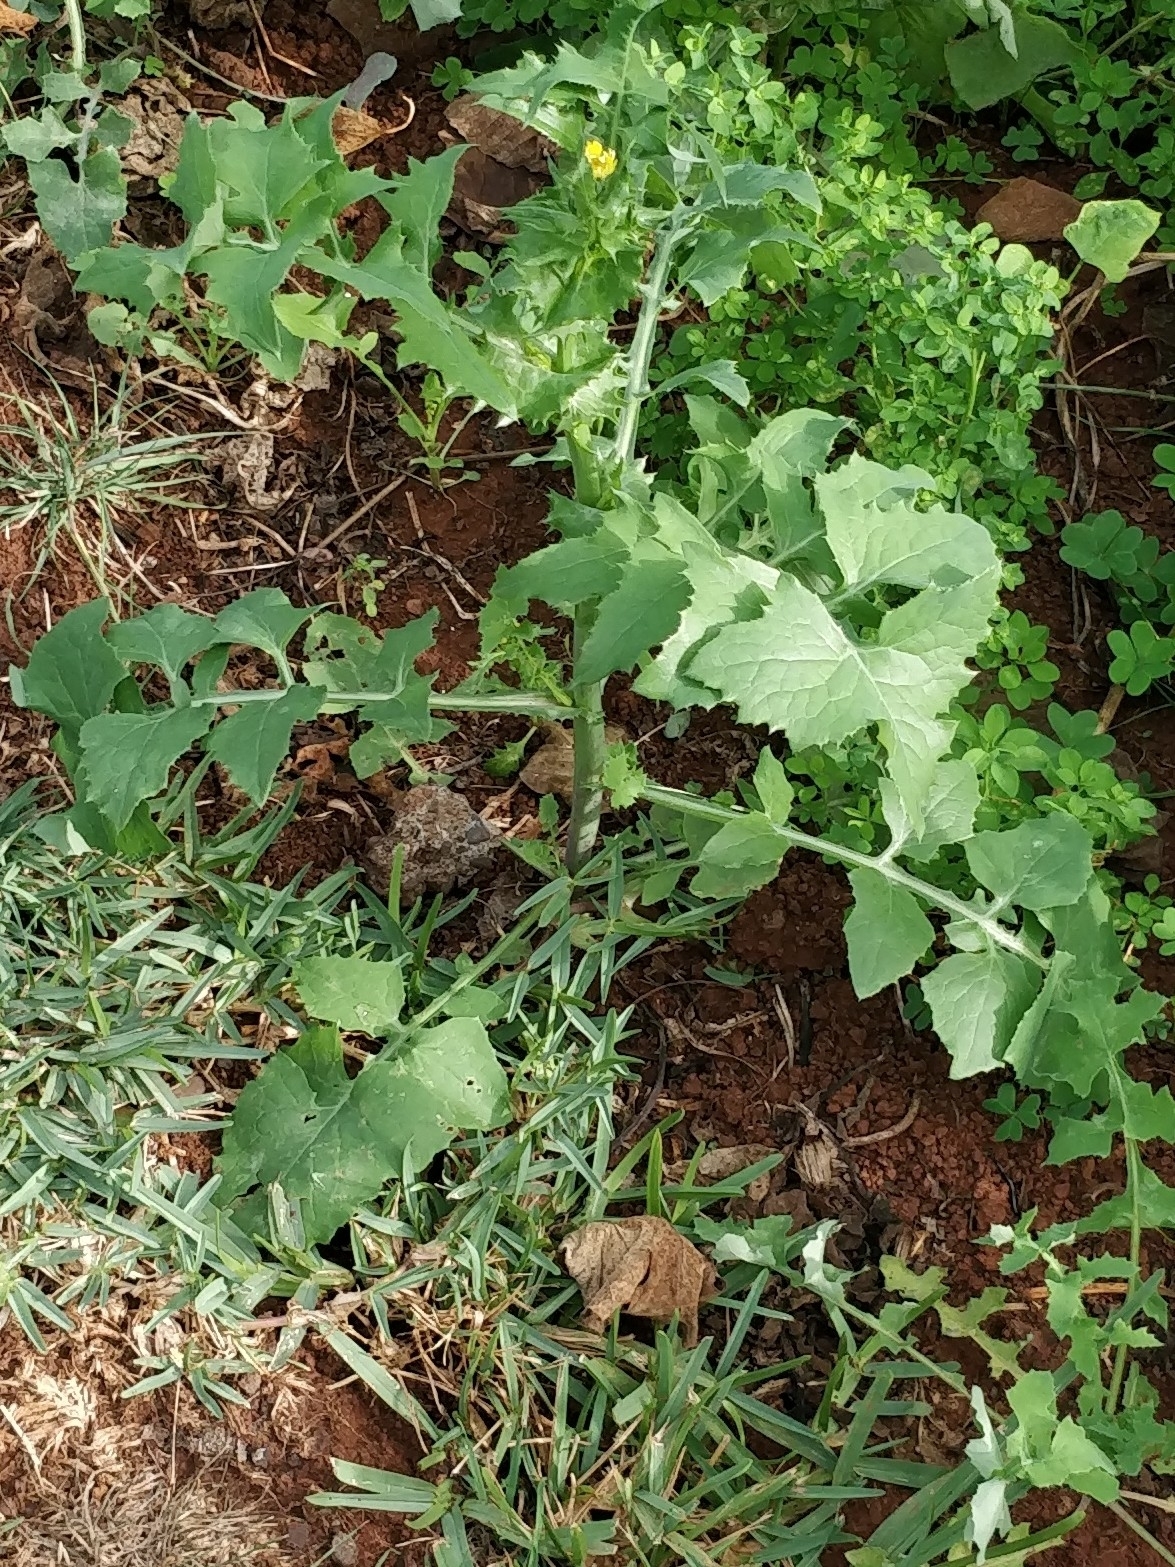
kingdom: Plantae
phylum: Tracheophyta
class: Magnoliopsida
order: Asterales
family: Asteraceae
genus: Sonchus
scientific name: Sonchus oleraceus
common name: Common sowthistle
